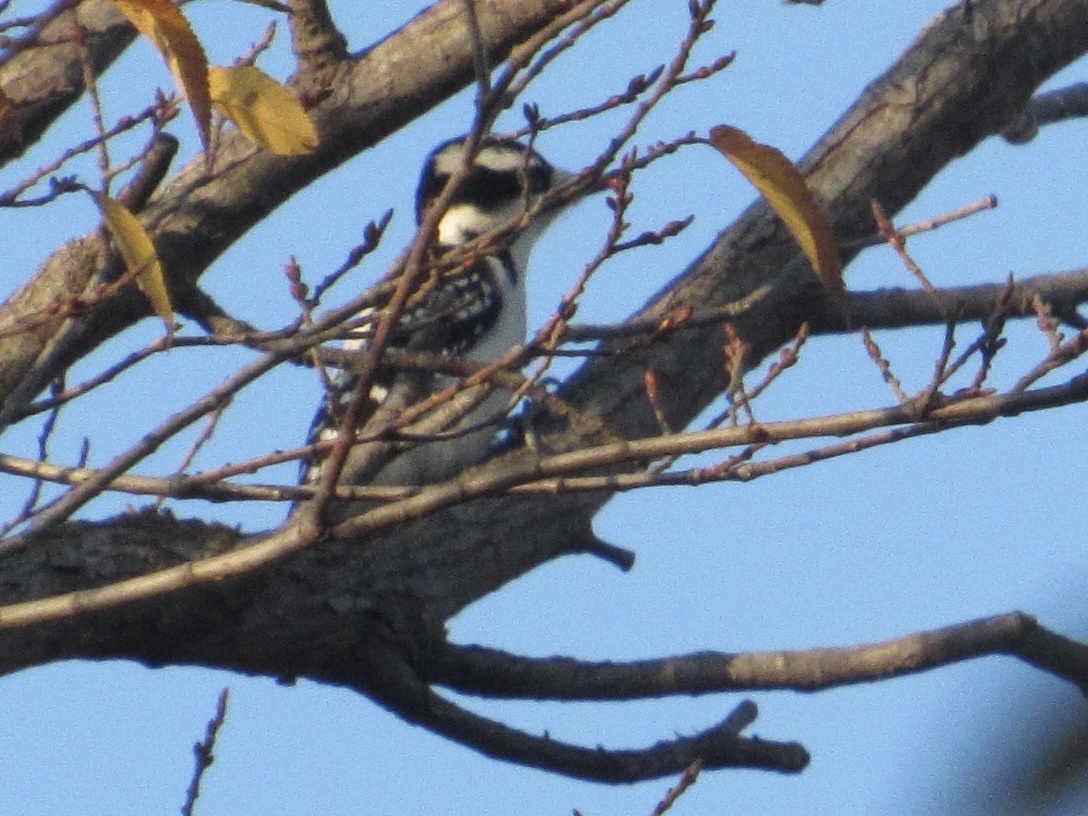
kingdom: Animalia
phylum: Chordata
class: Aves
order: Piciformes
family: Picidae
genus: Dryobates
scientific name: Dryobates pubescens
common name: Downy woodpecker
